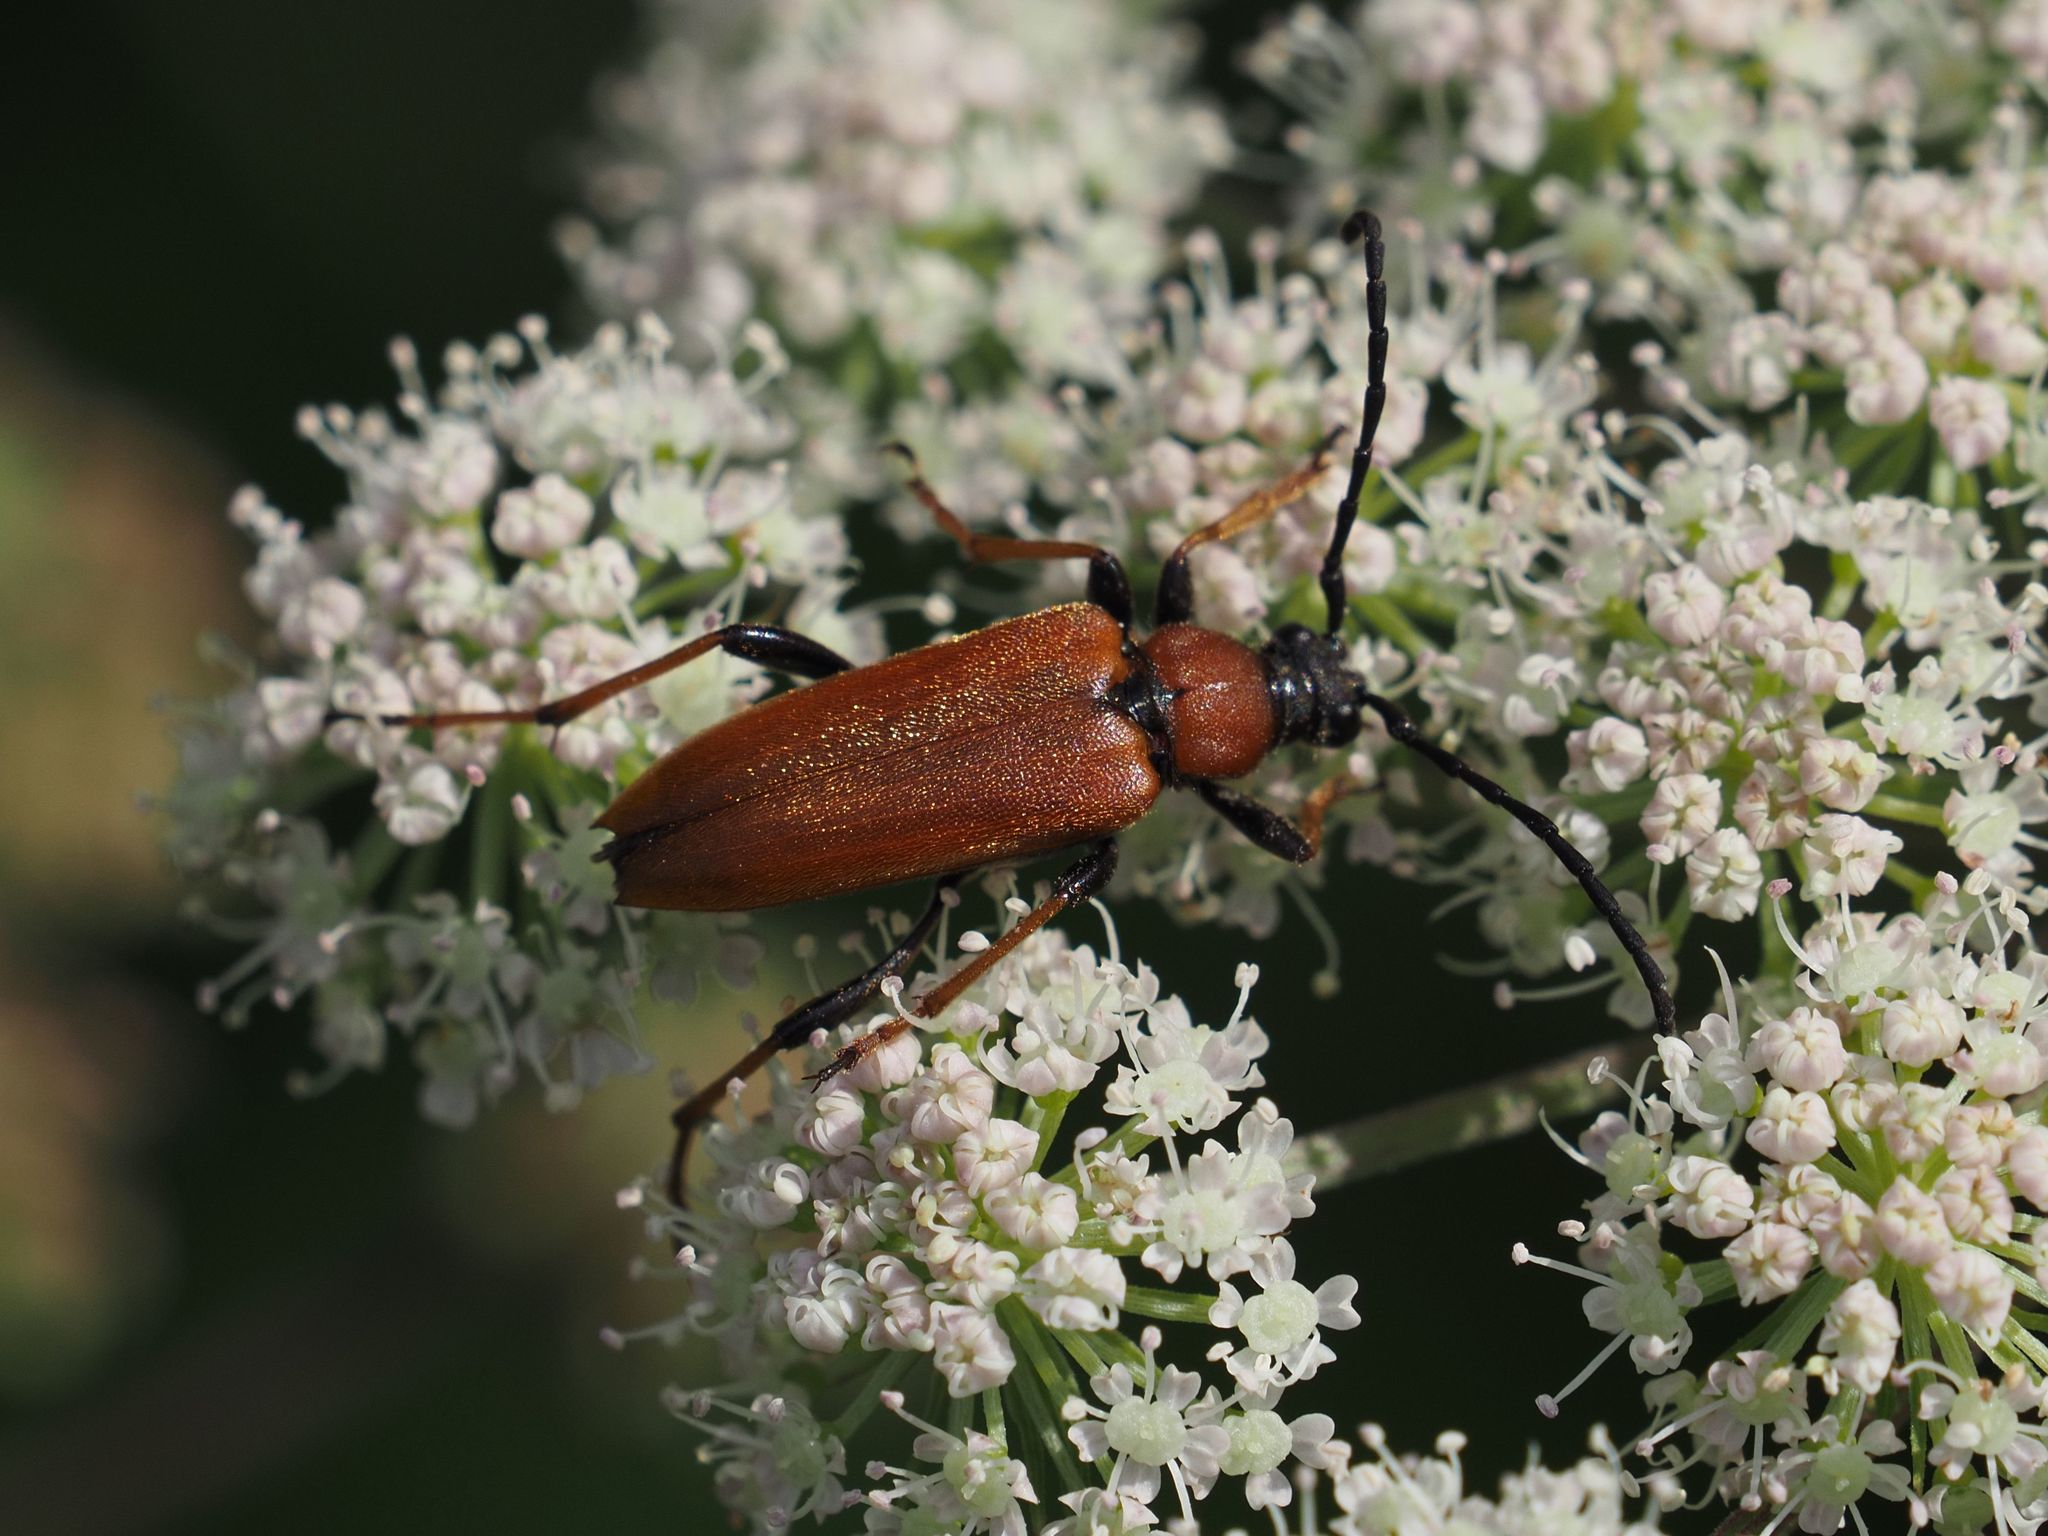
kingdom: Animalia
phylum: Arthropoda
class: Insecta
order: Coleoptera
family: Cerambycidae
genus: Stictoleptura
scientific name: Stictoleptura rubra
